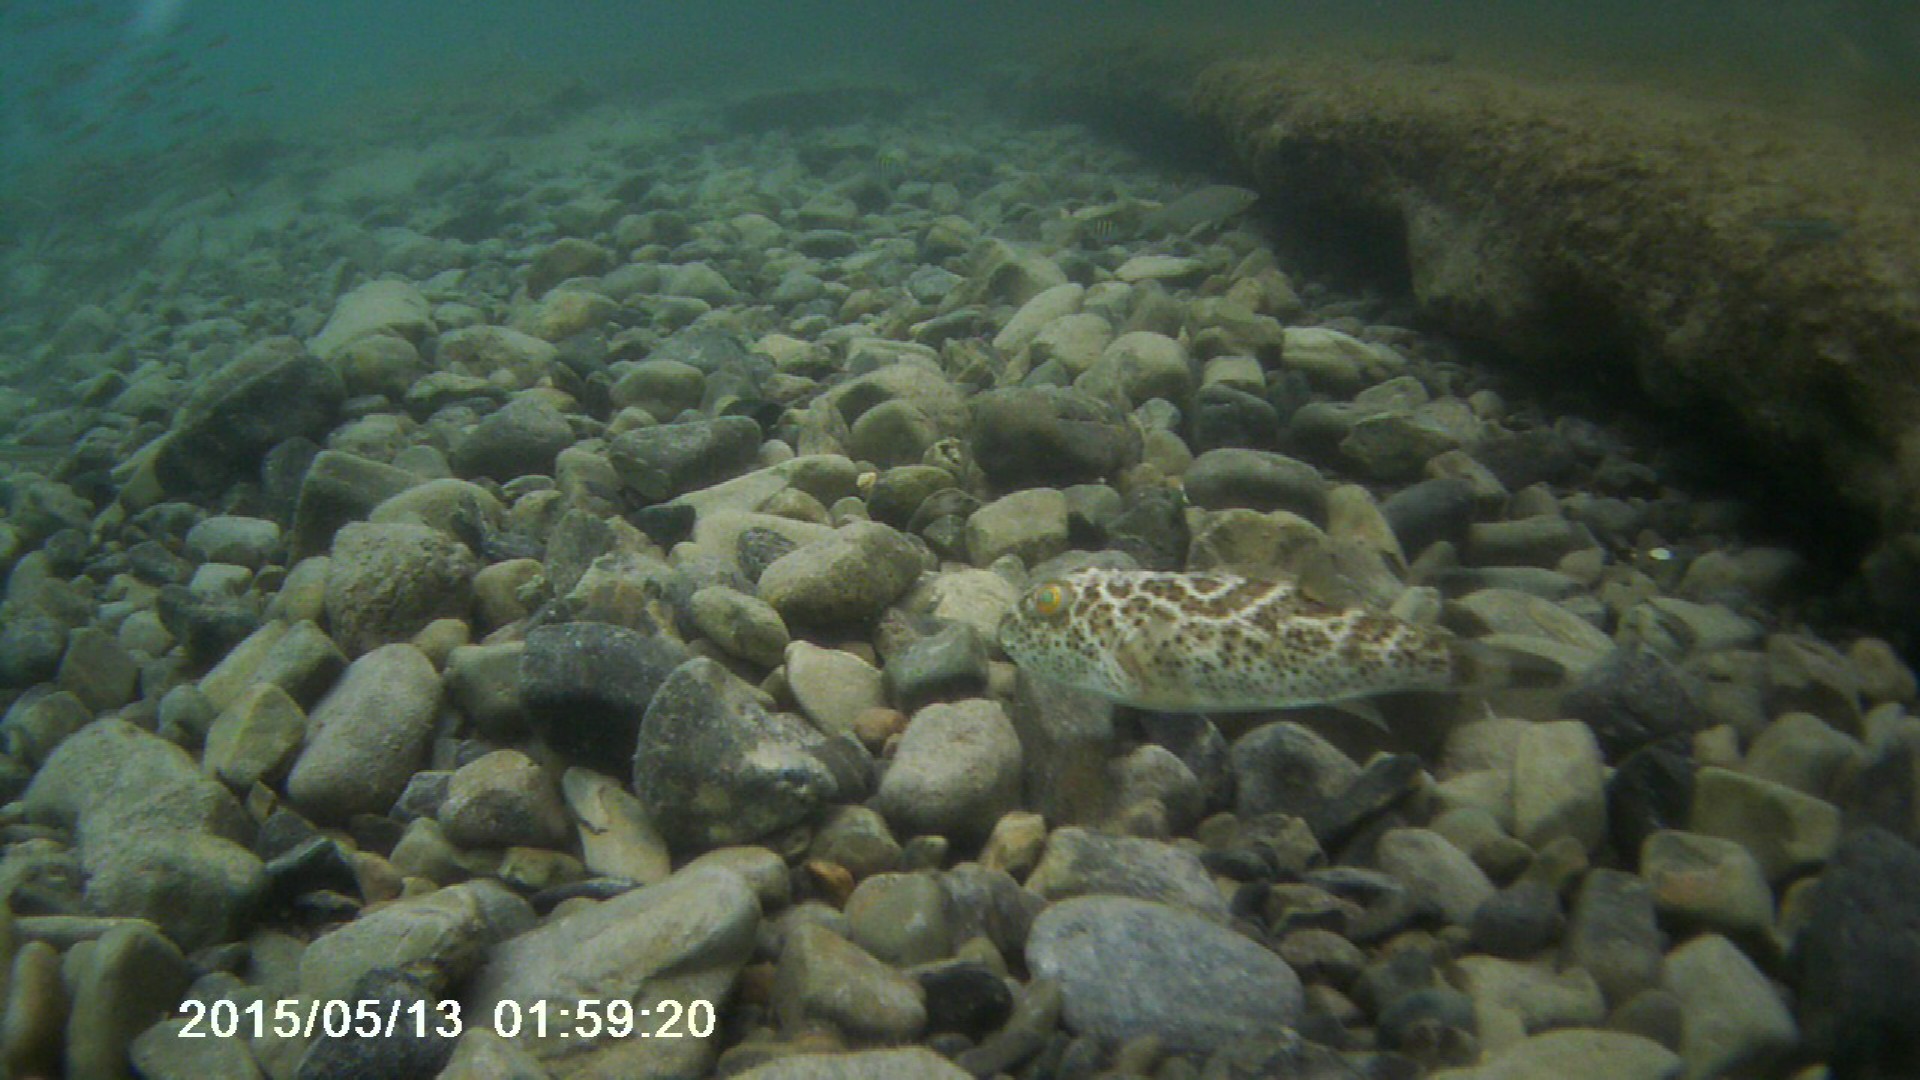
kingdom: Animalia
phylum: Chordata
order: Tetraodontiformes
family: Tetraodontidae
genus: Sphoeroides
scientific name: Sphoeroides testudineus
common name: Checkered puffer
